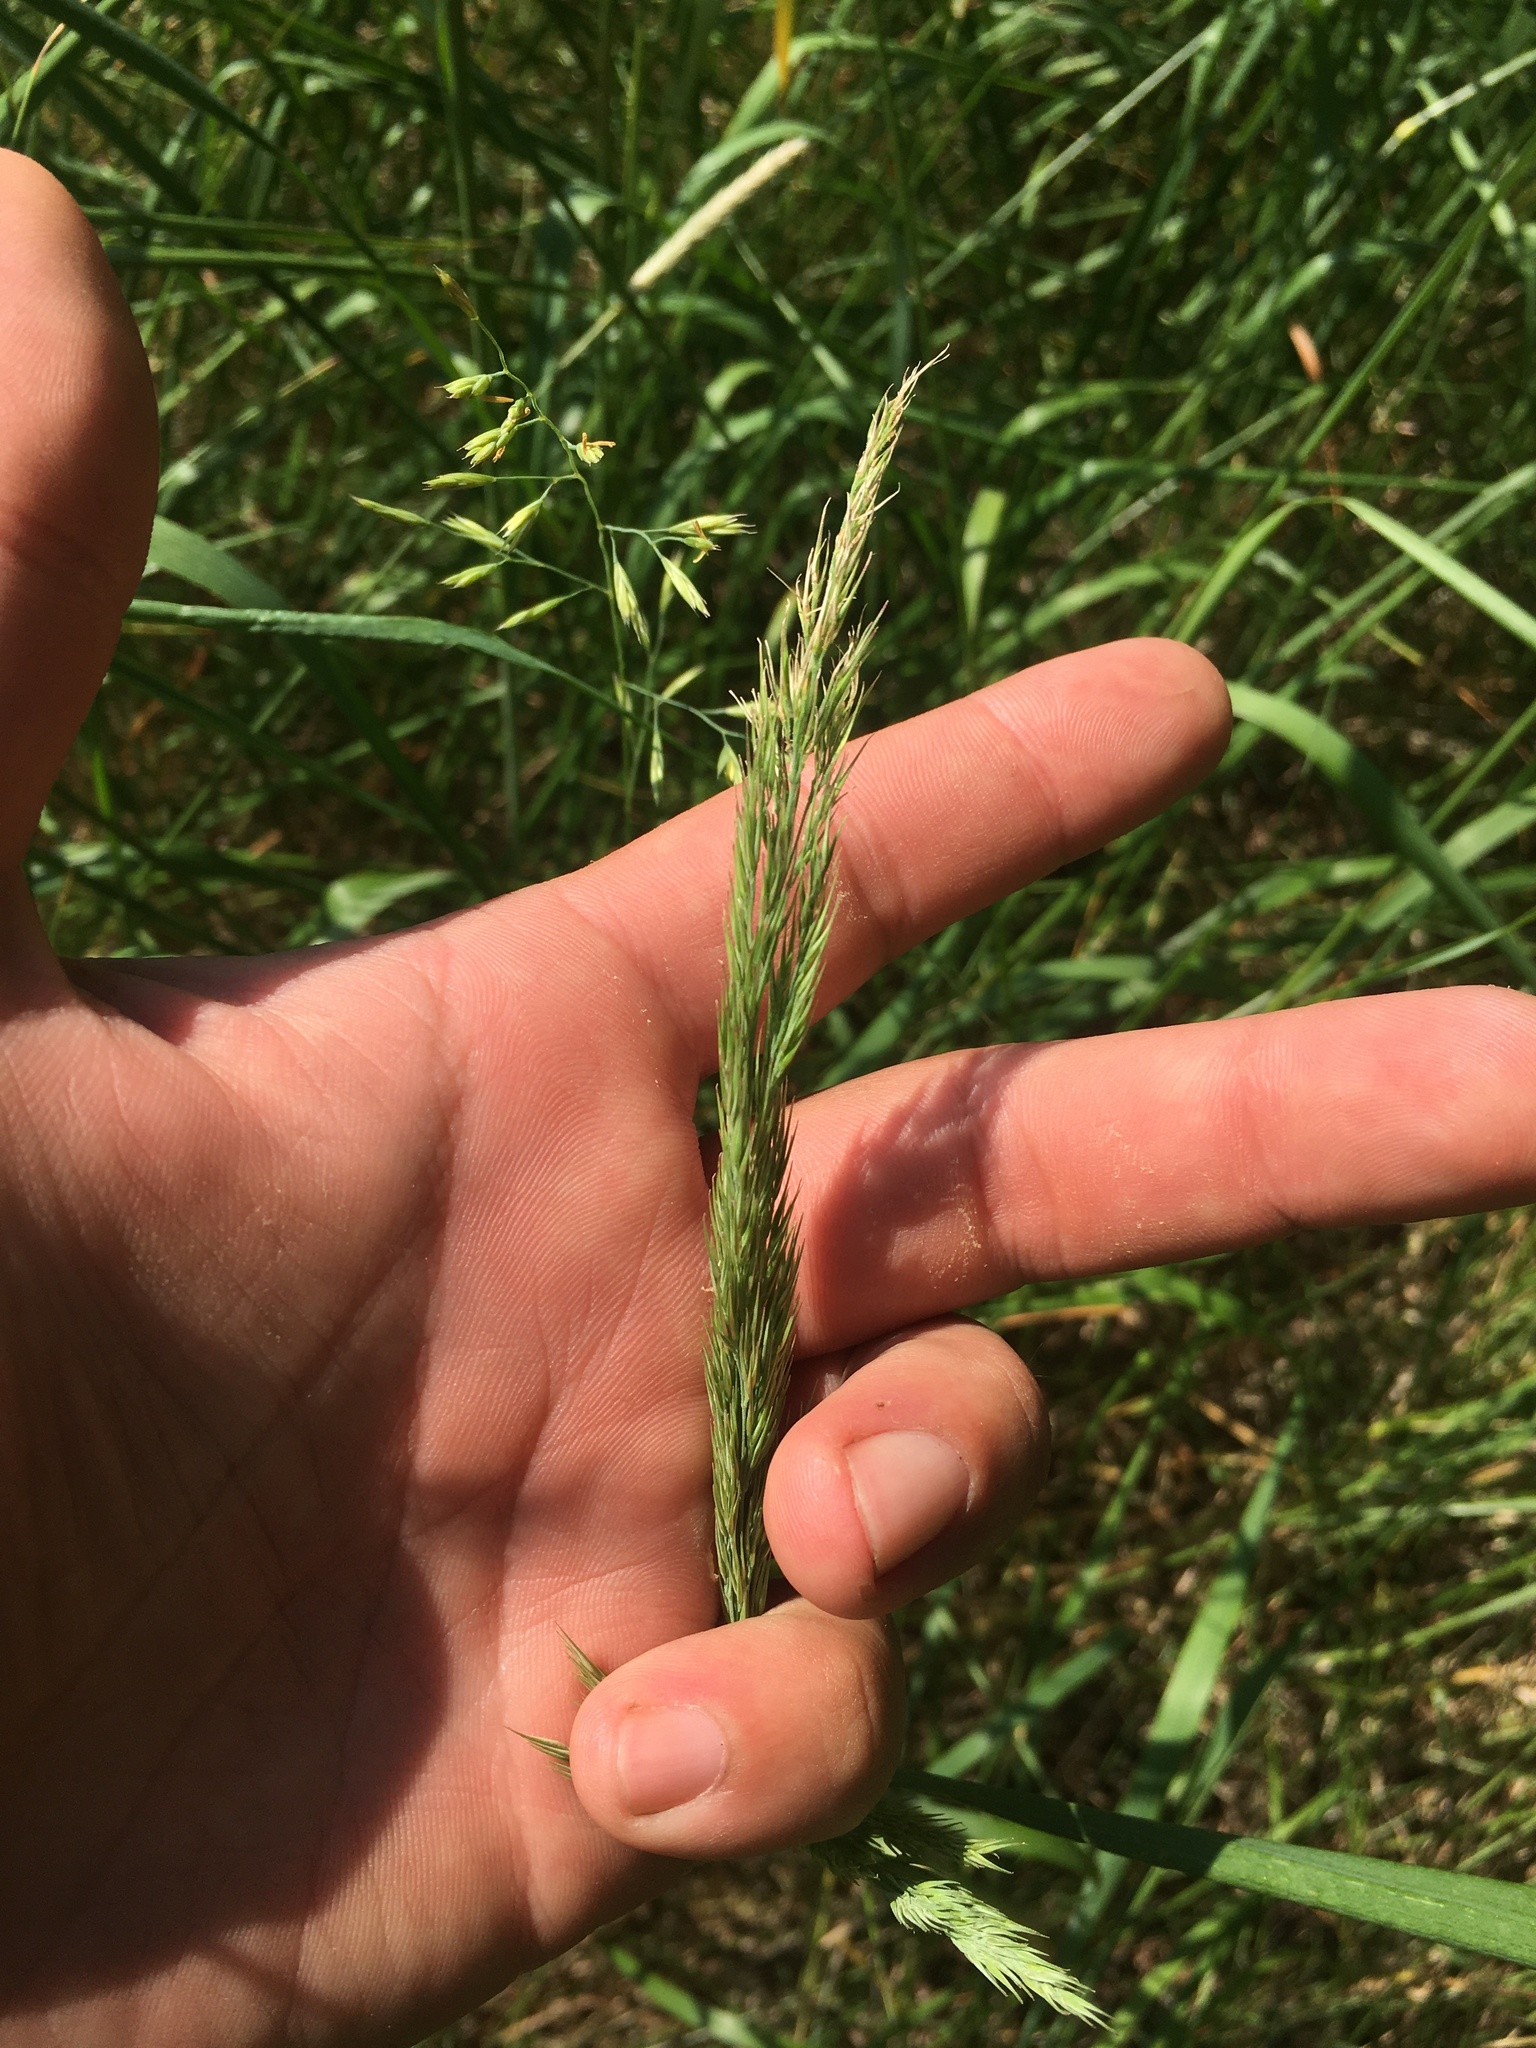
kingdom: Plantae
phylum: Tracheophyta
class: Liliopsida
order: Poales
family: Poaceae
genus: Calamagrostis
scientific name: Calamagrostis epigejos
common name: Wood small-reed
